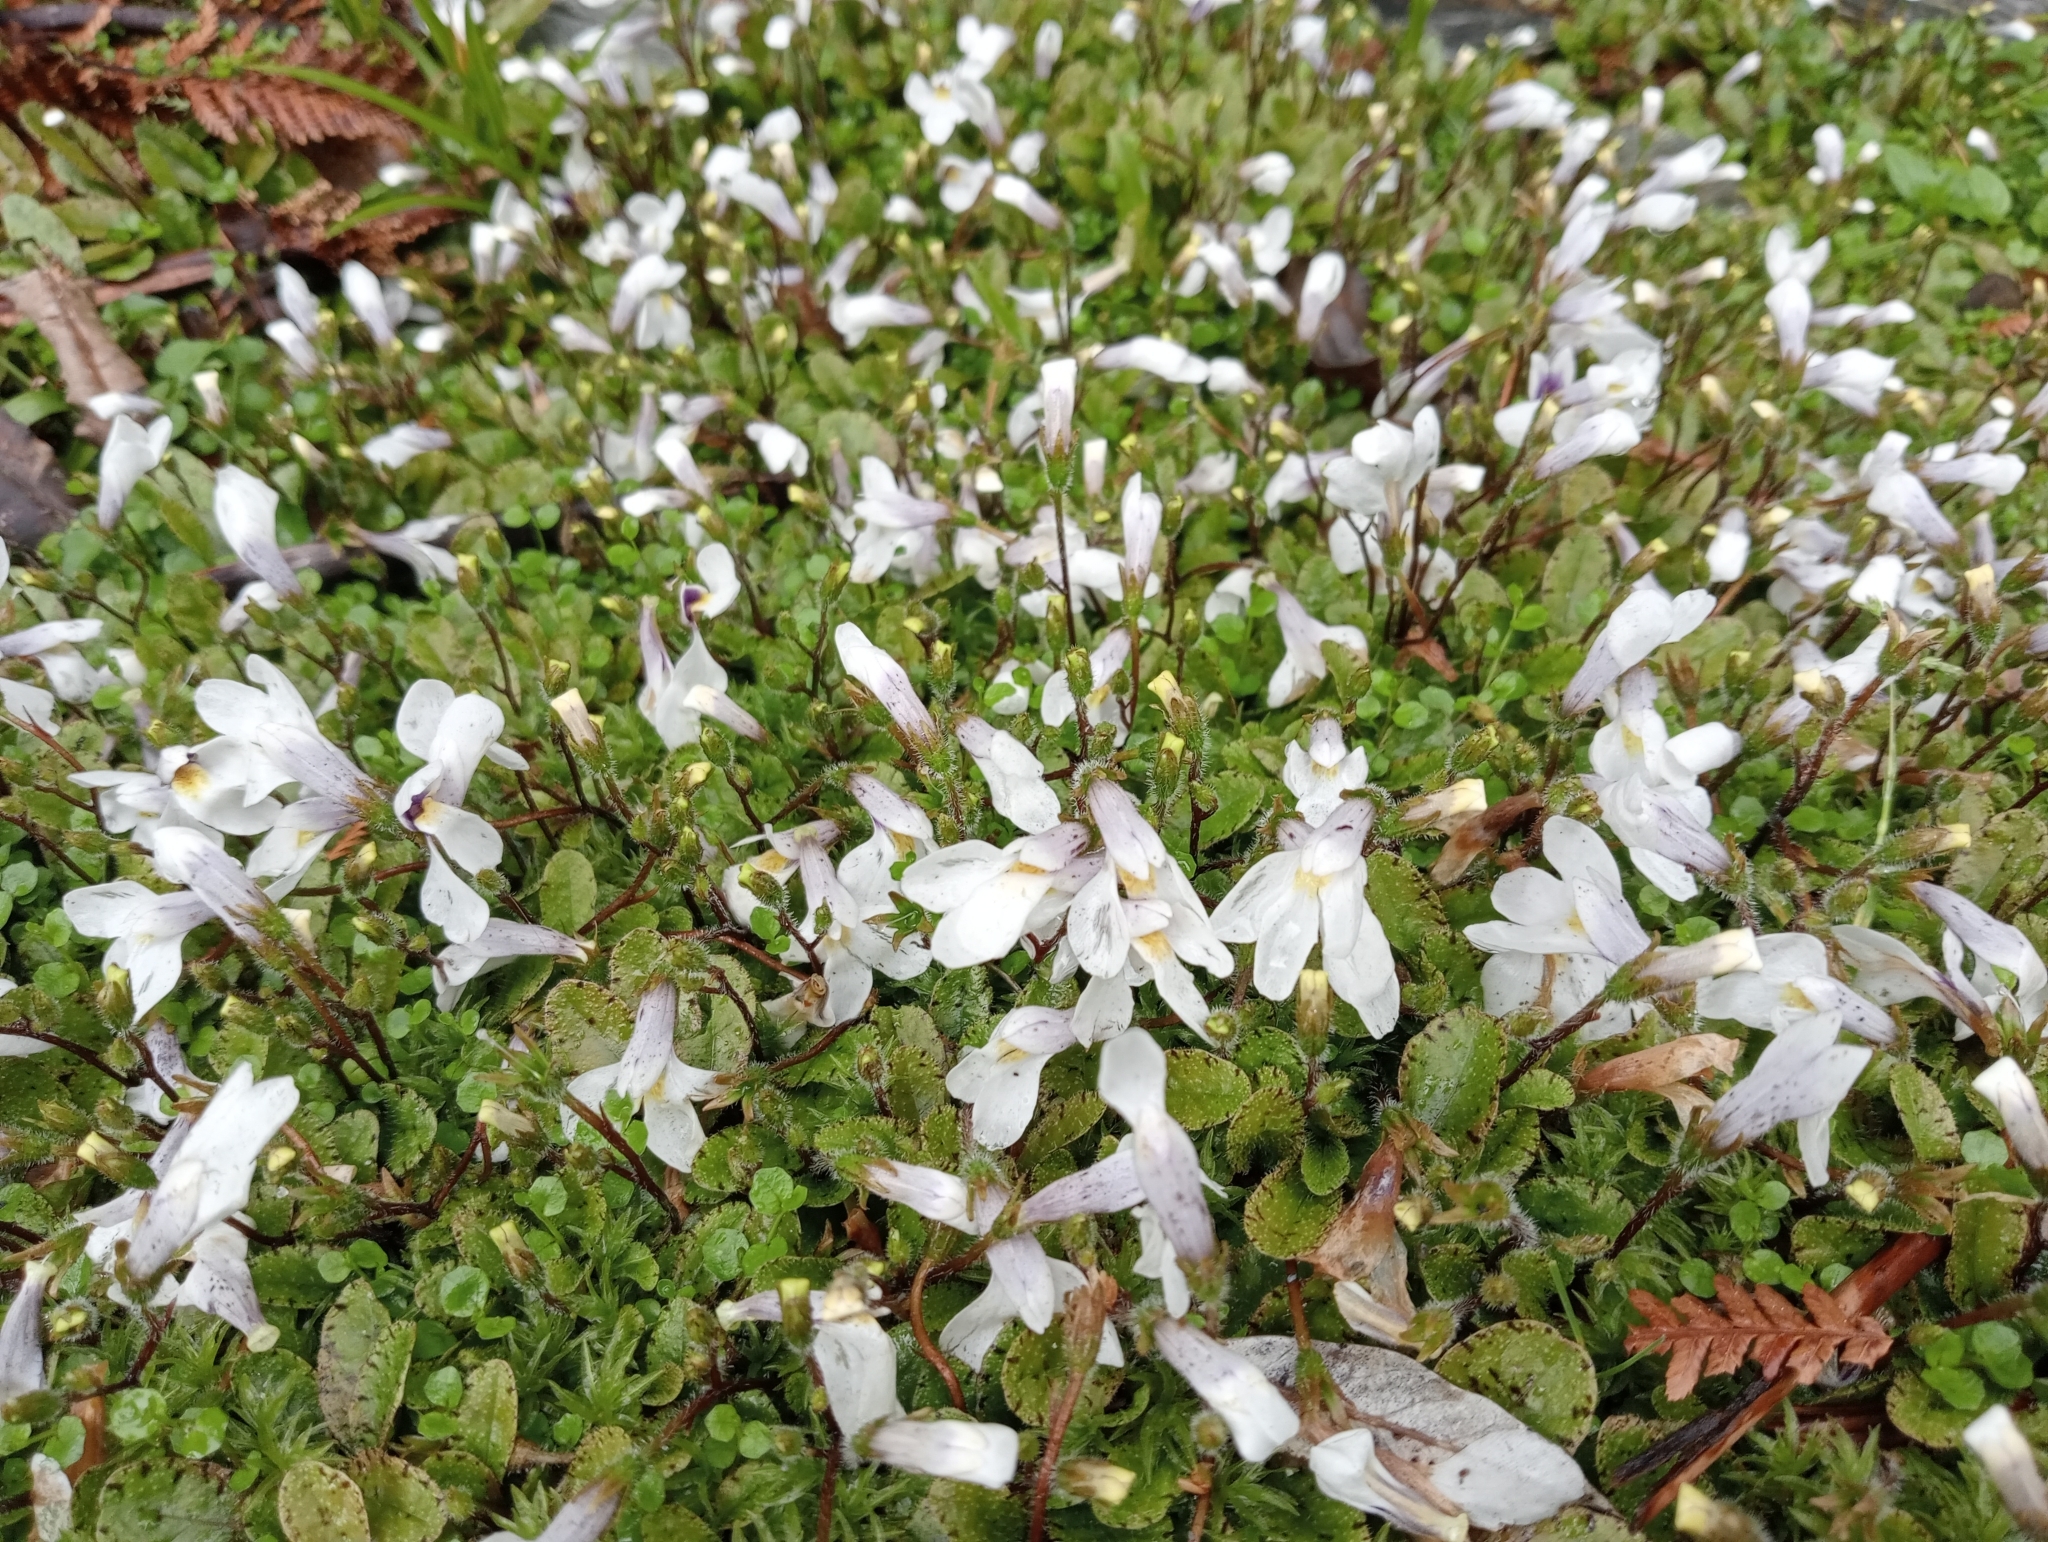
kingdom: Plantae
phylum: Tracheophyta
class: Magnoliopsida
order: Lamiales
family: Mazaceae
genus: Mazus
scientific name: Mazus radicans
